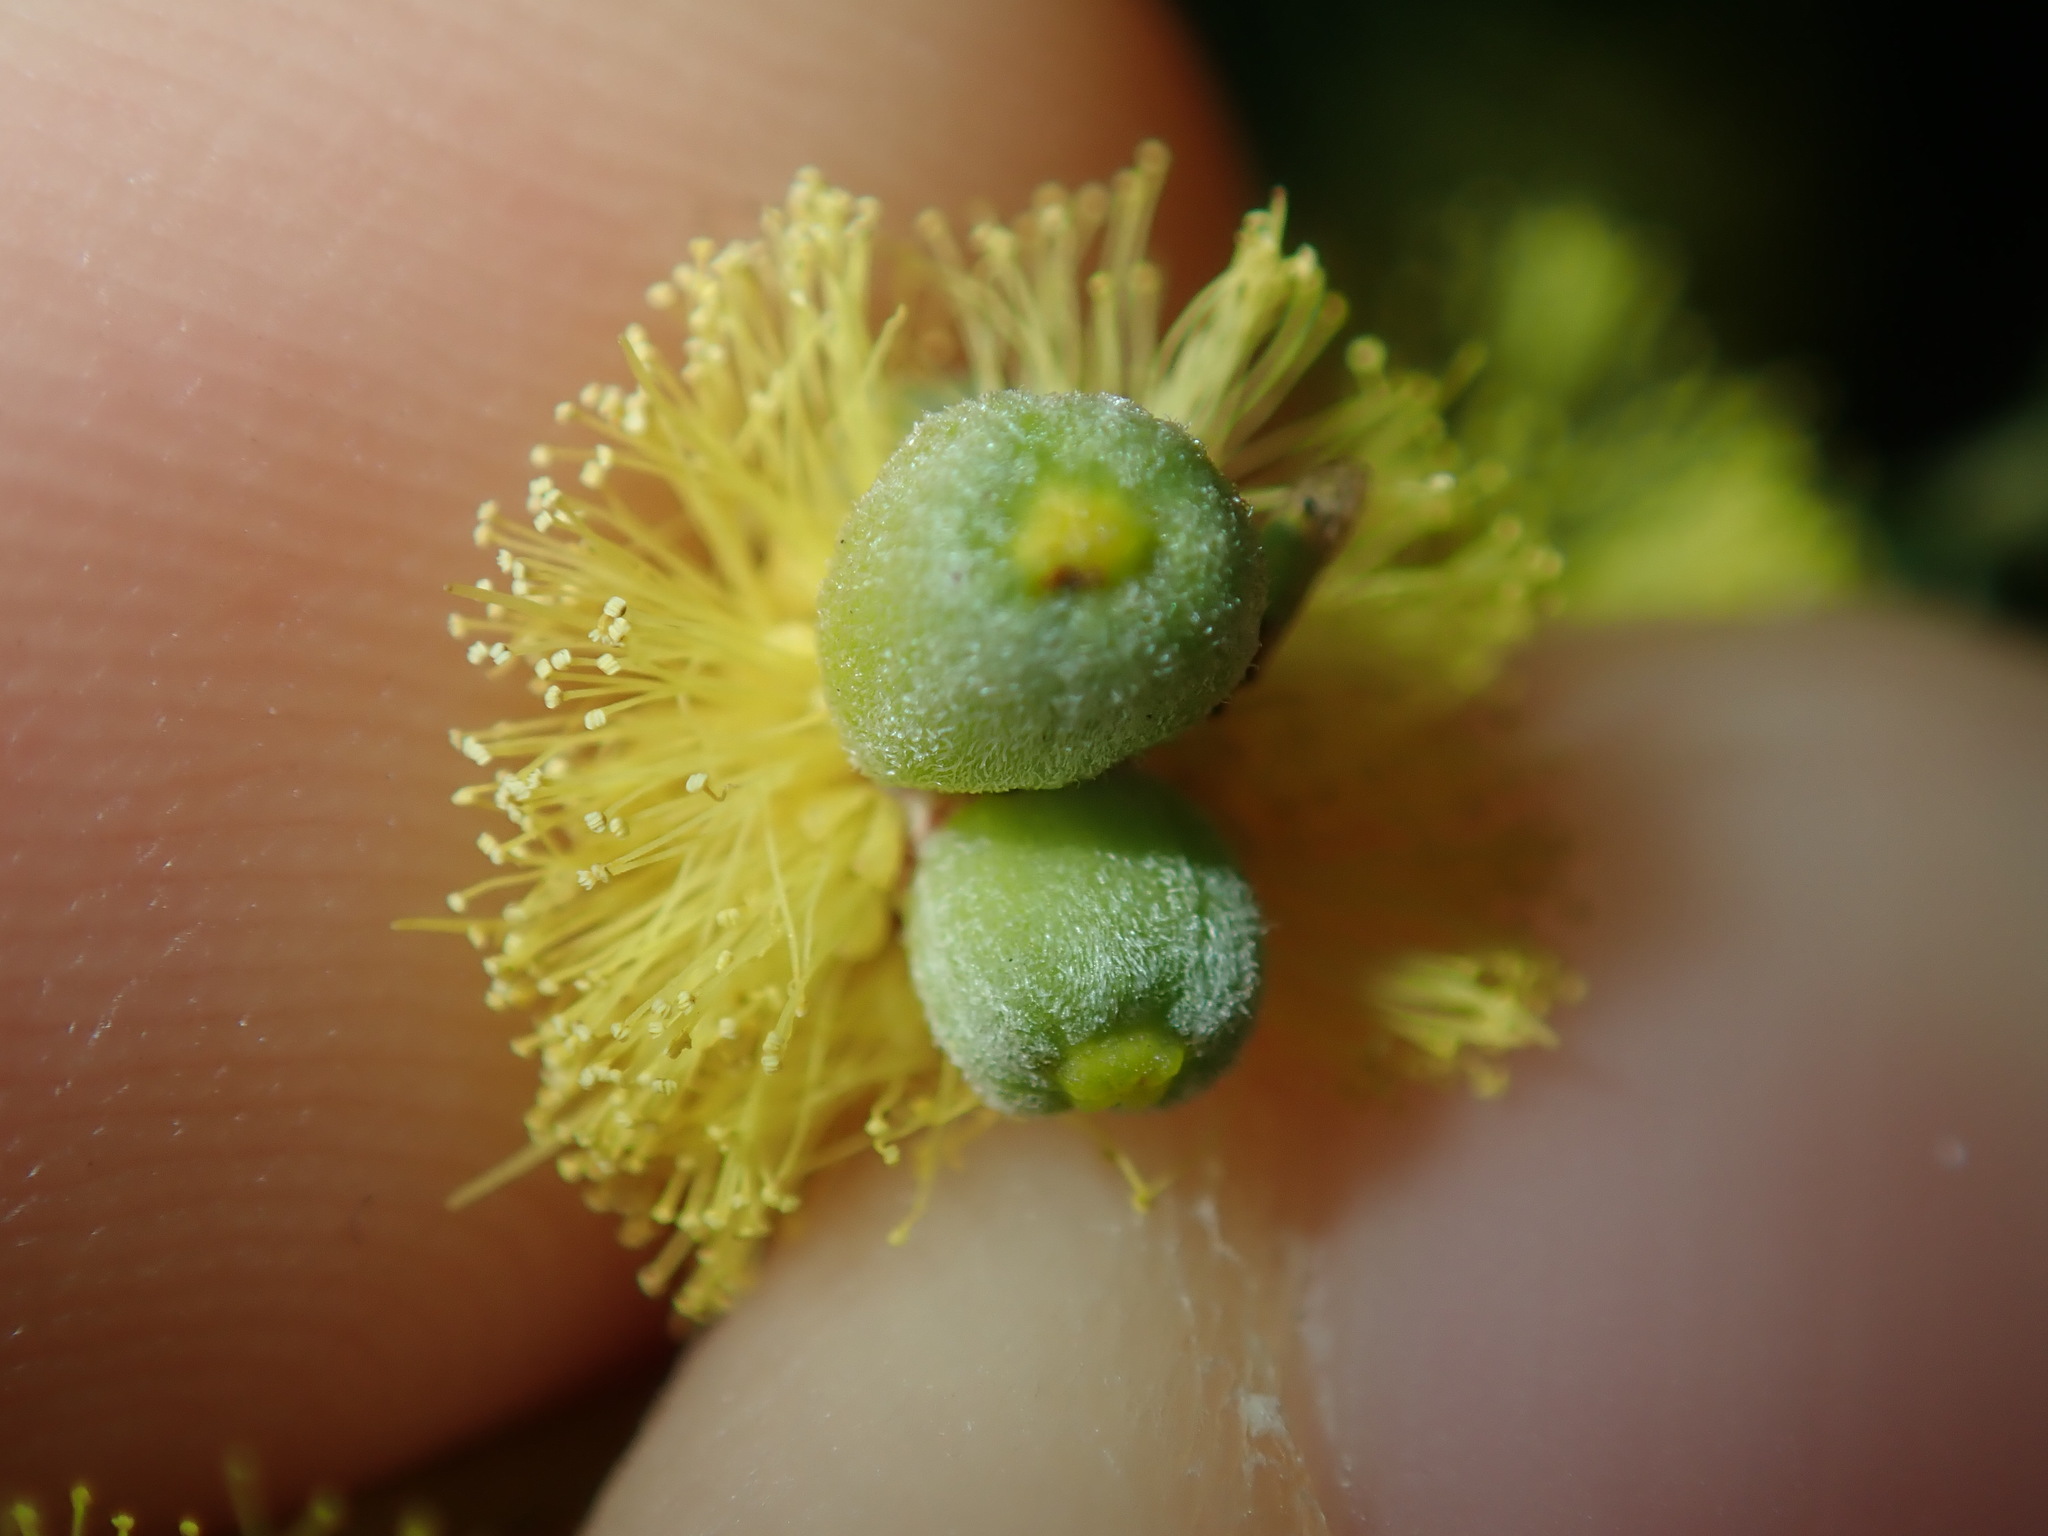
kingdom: Animalia
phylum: Arthropoda
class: Insecta
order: Diptera
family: Cecidomyiidae
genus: Asphondylia
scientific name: Asphondylia glabrigerminis
